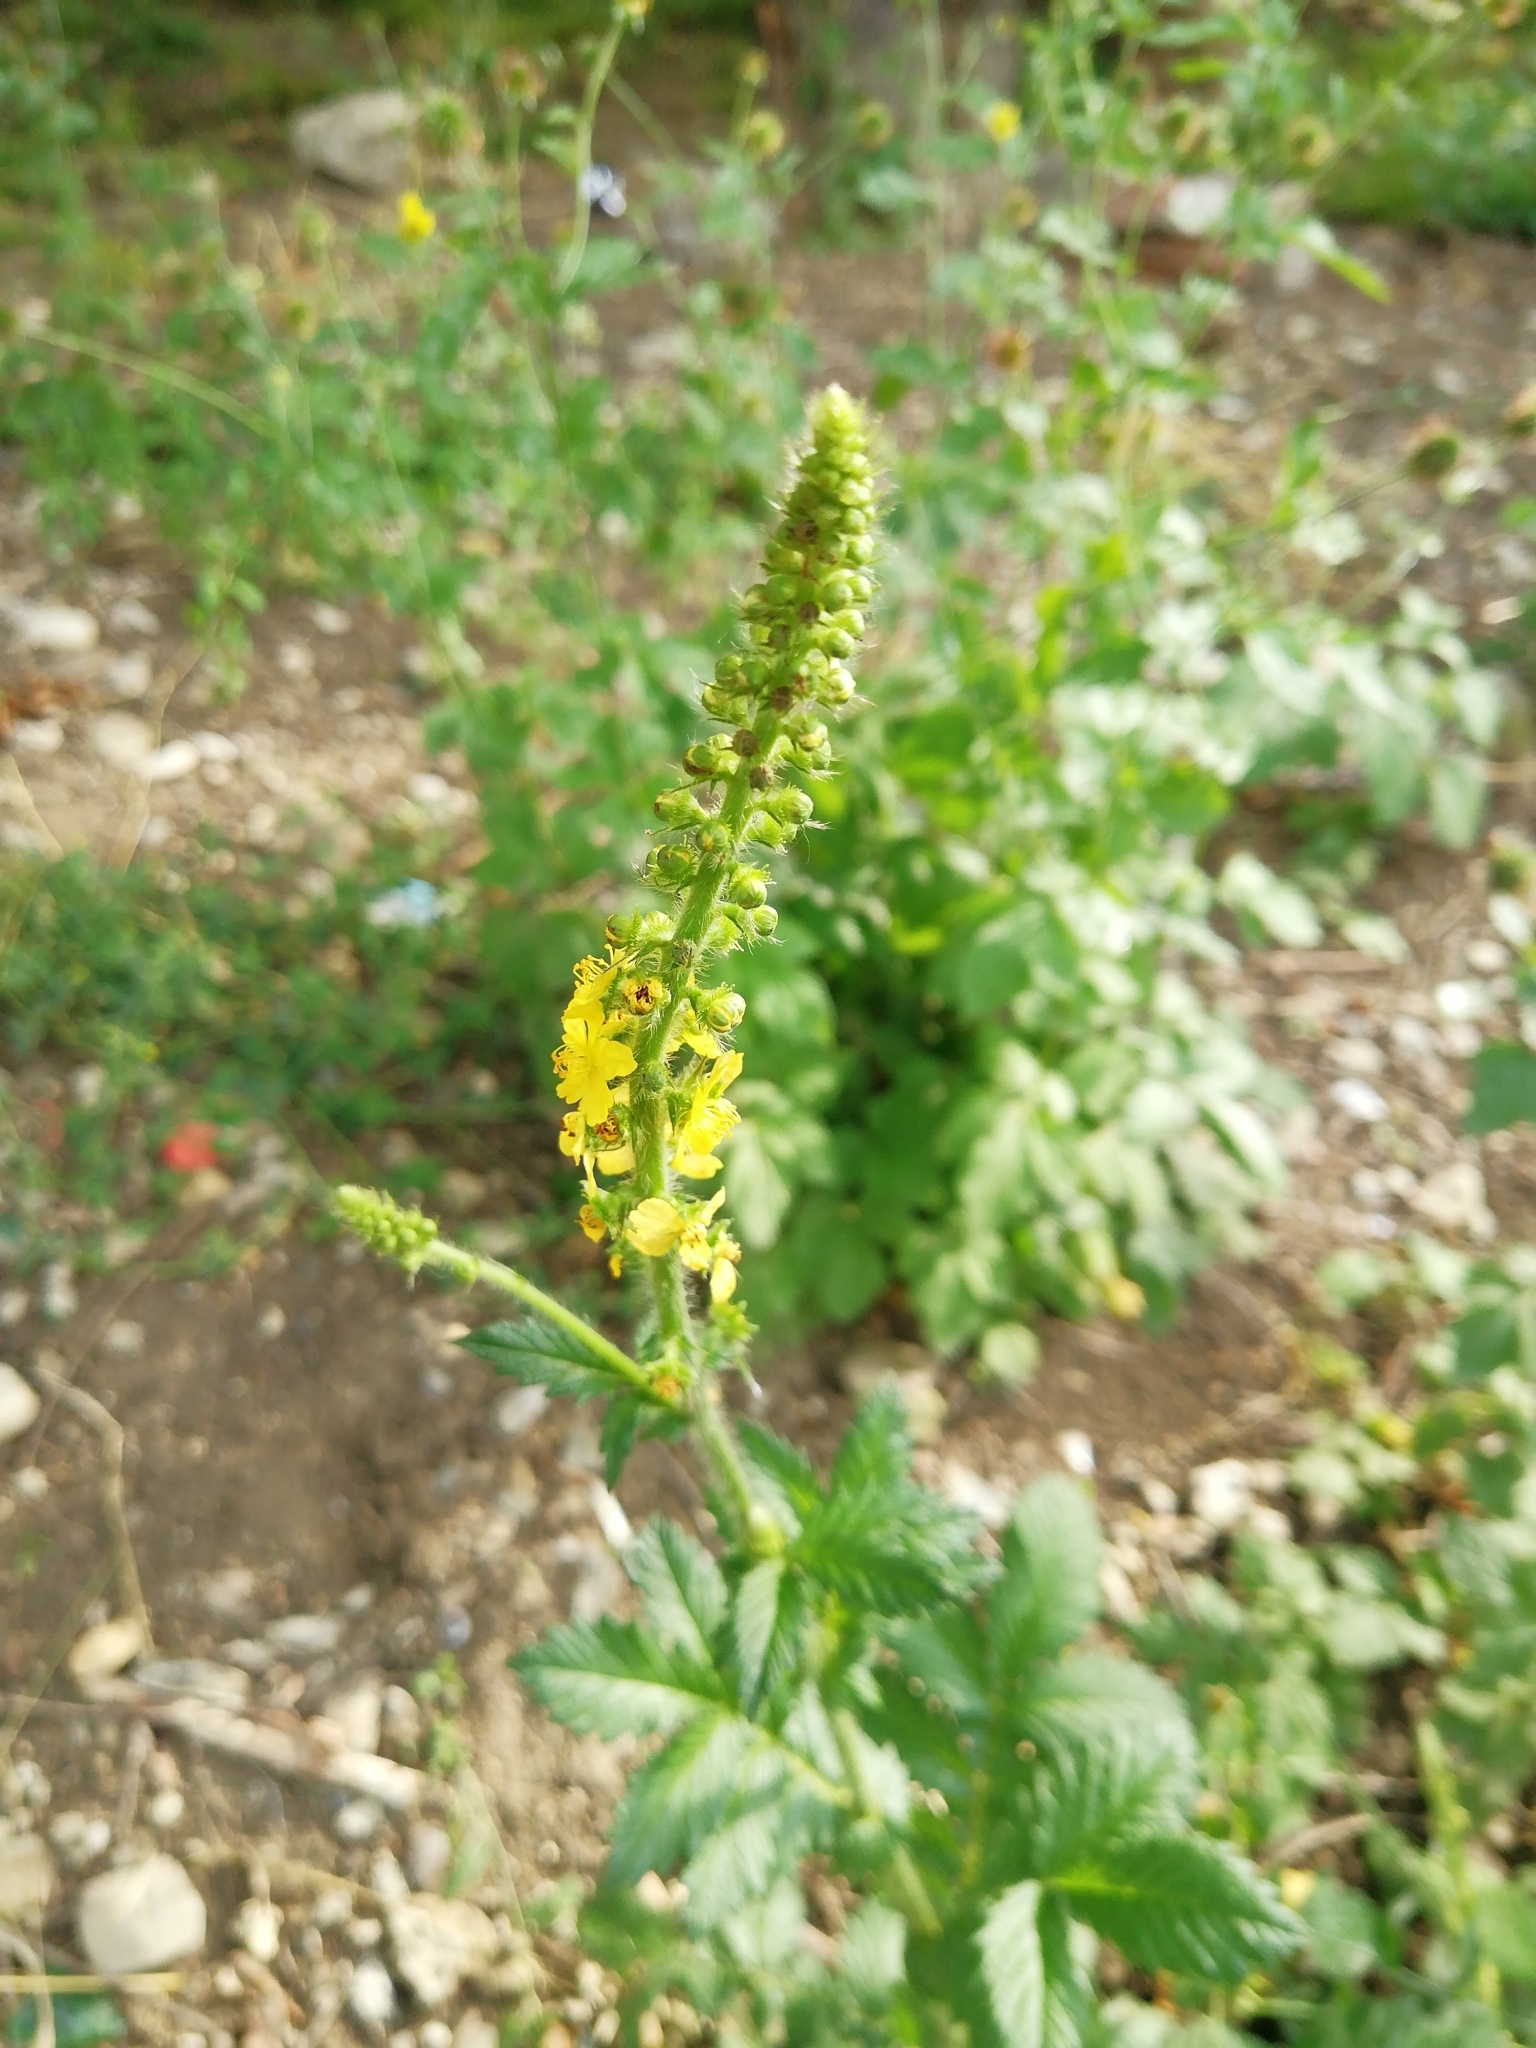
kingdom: Plantae
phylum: Tracheophyta
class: Magnoliopsida
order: Rosales
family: Rosaceae
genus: Agrimonia
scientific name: Agrimonia eupatoria
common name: Agrimony
